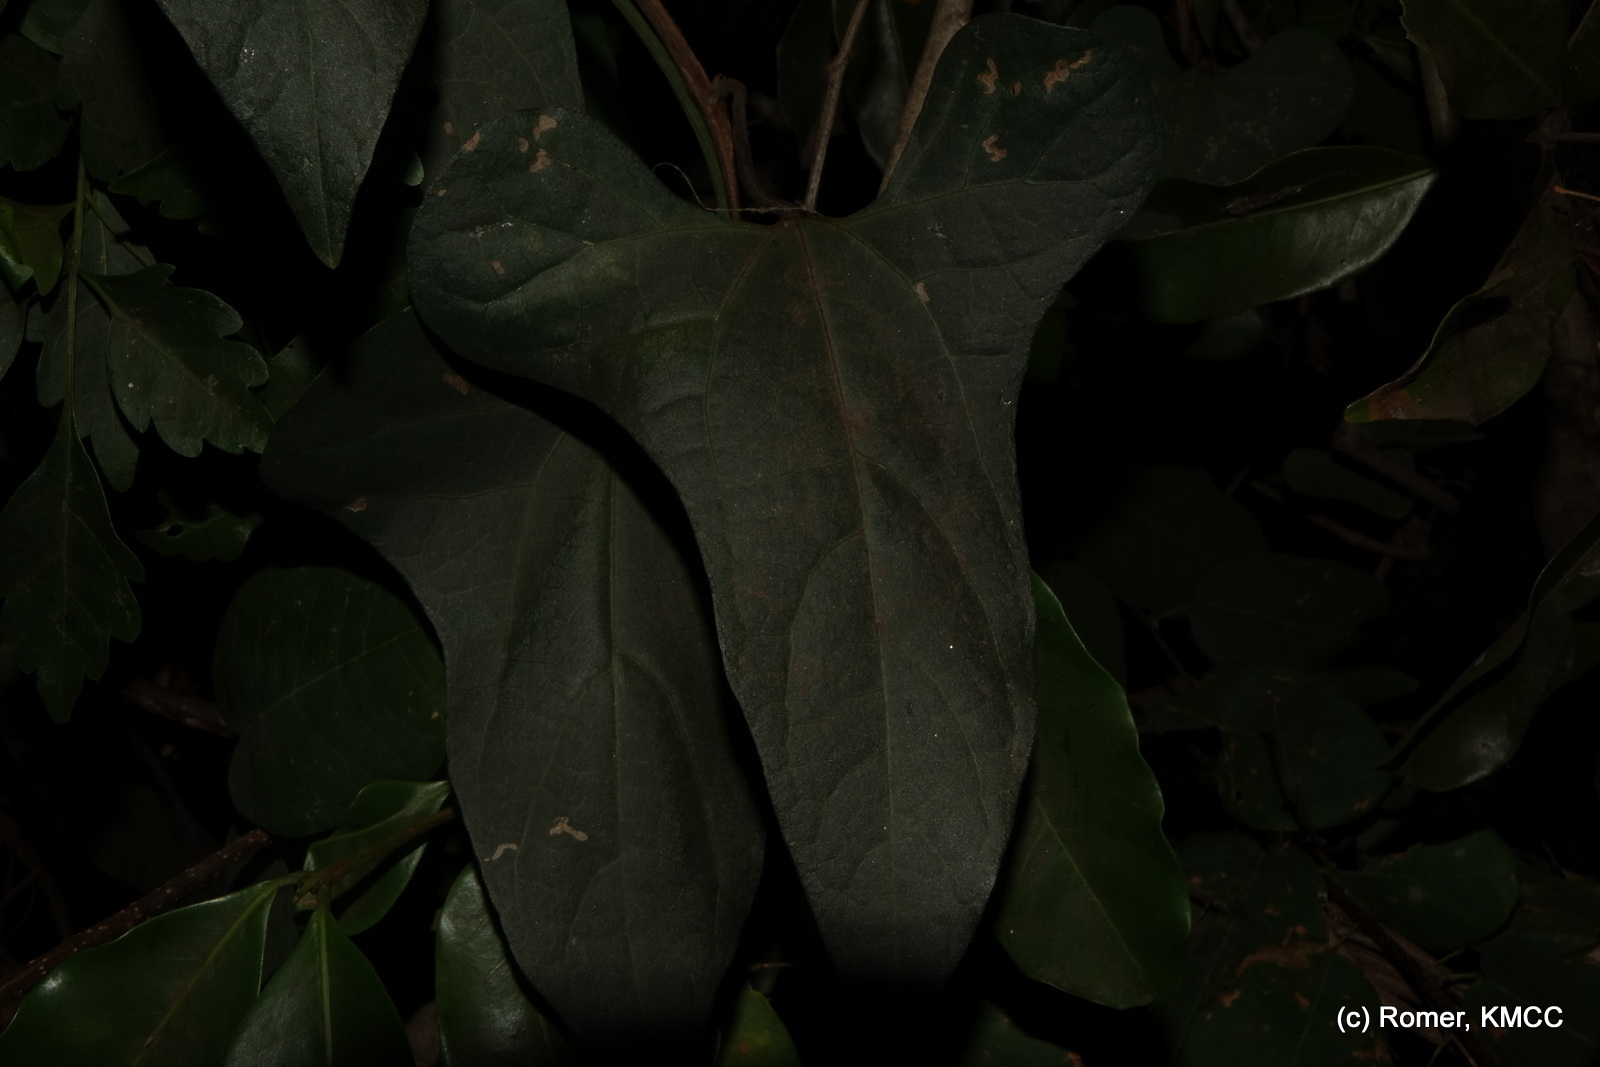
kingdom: Plantae
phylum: Tracheophyta
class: Magnoliopsida
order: Piperales
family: Aristolochiaceae
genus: Aristolochia
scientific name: Aristolochia albida
